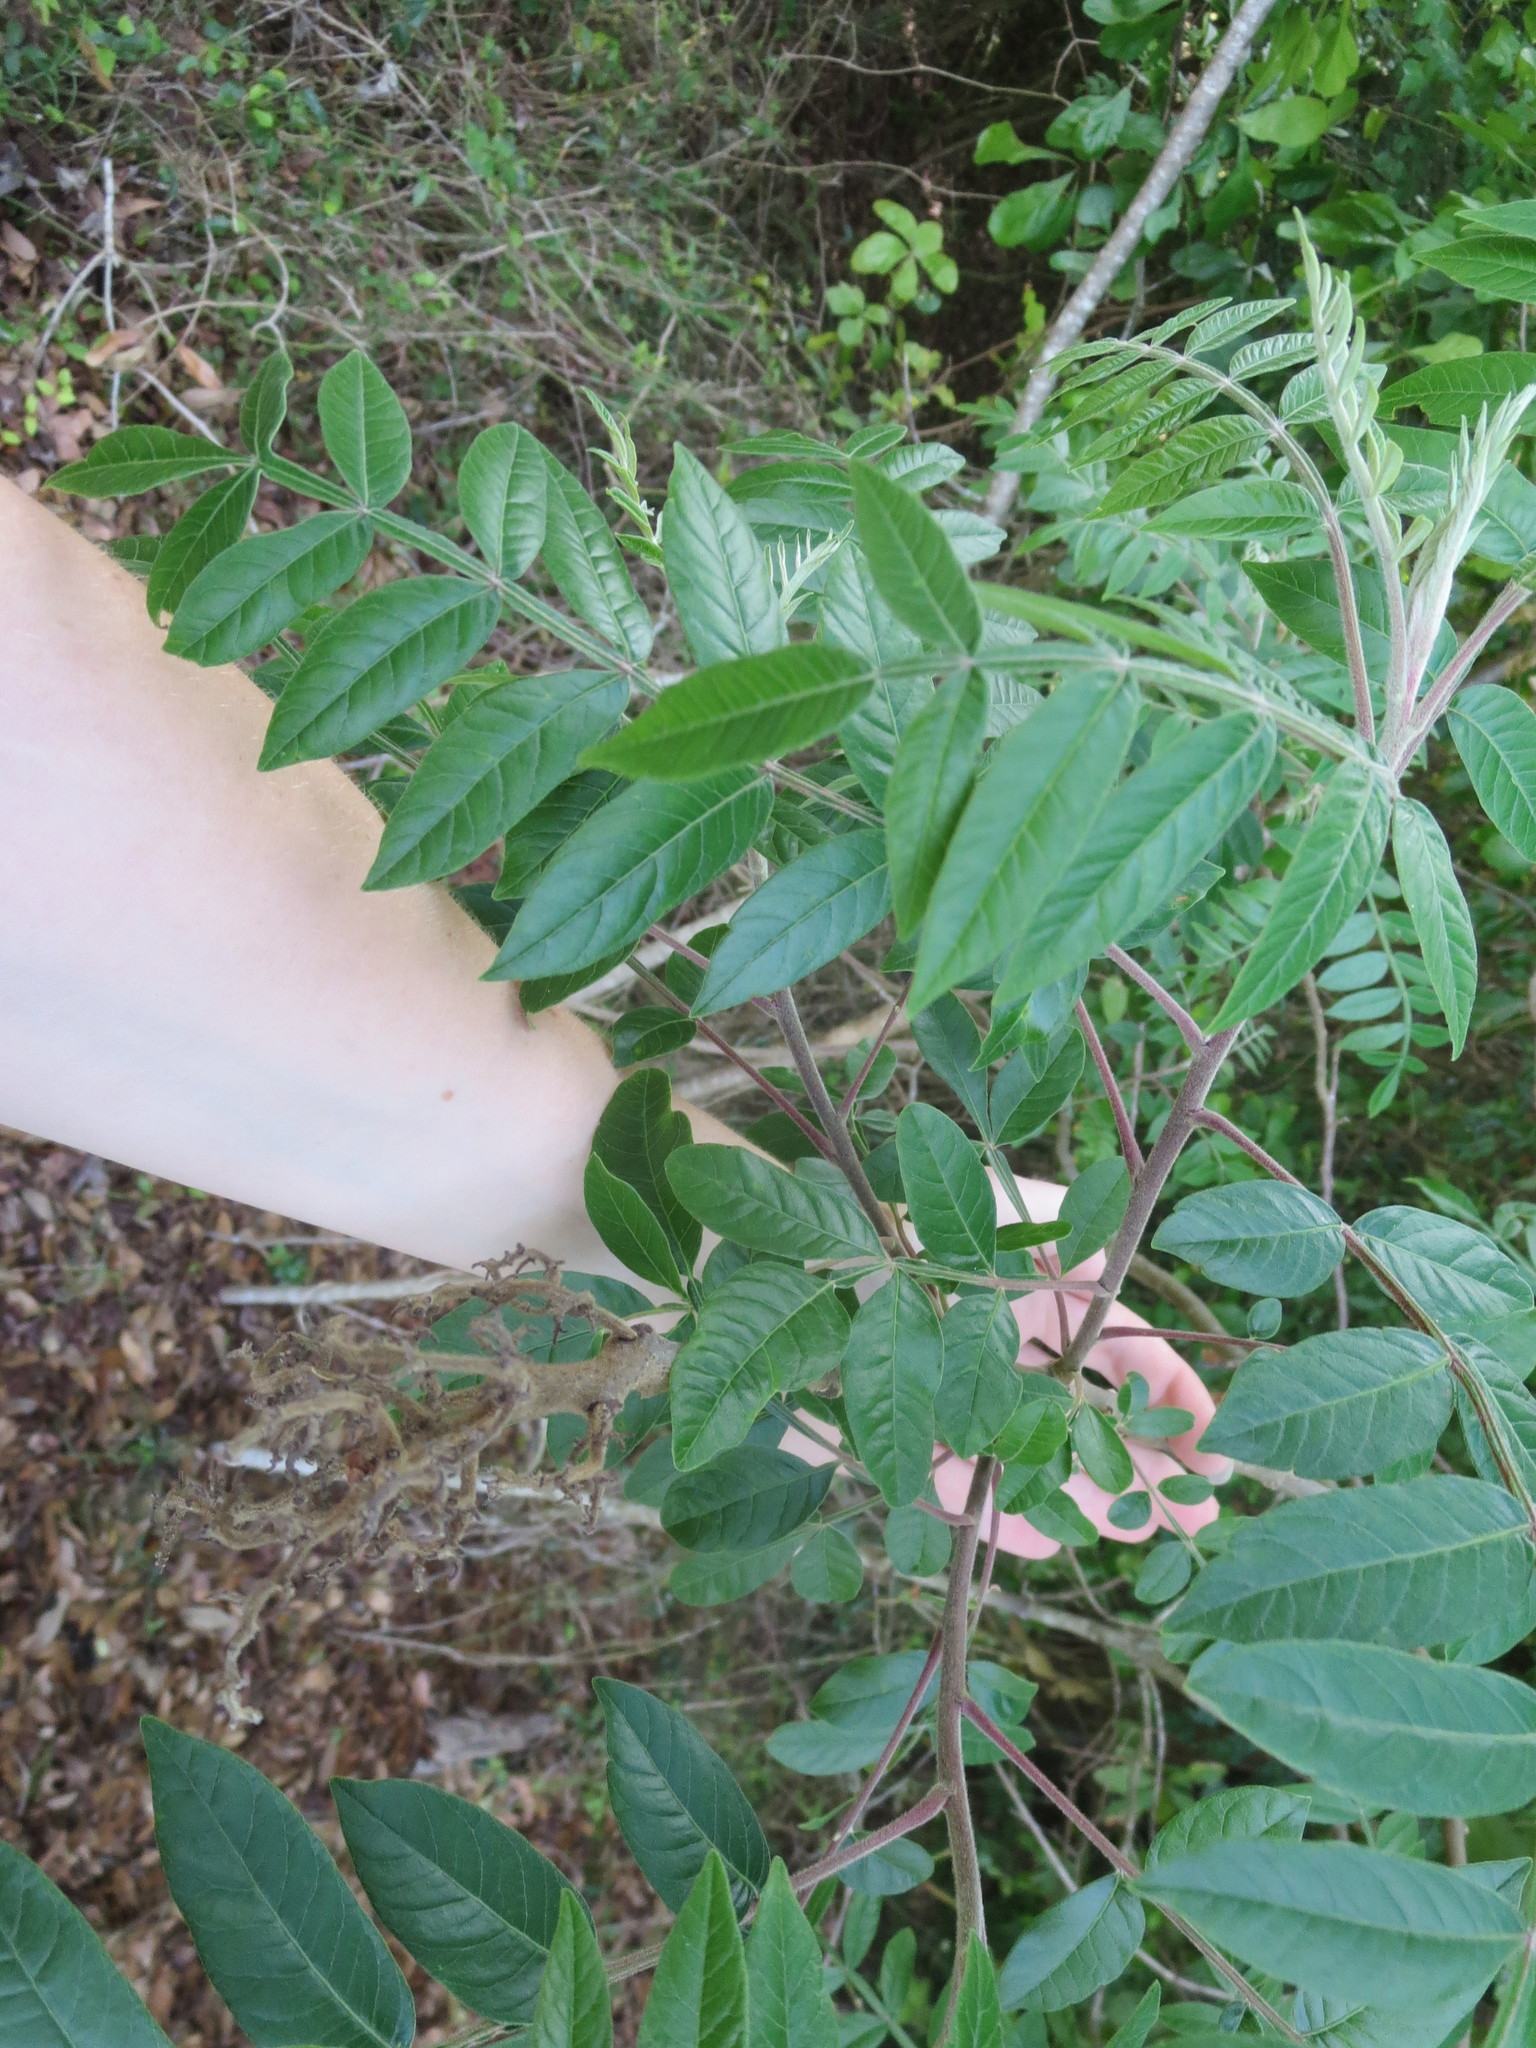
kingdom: Plantae
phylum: Tracheophyta
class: Magnoliopsida
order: Sapindales
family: Anacardiaceae
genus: Rhus
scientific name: Rhus copallina
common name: Shining sumac
